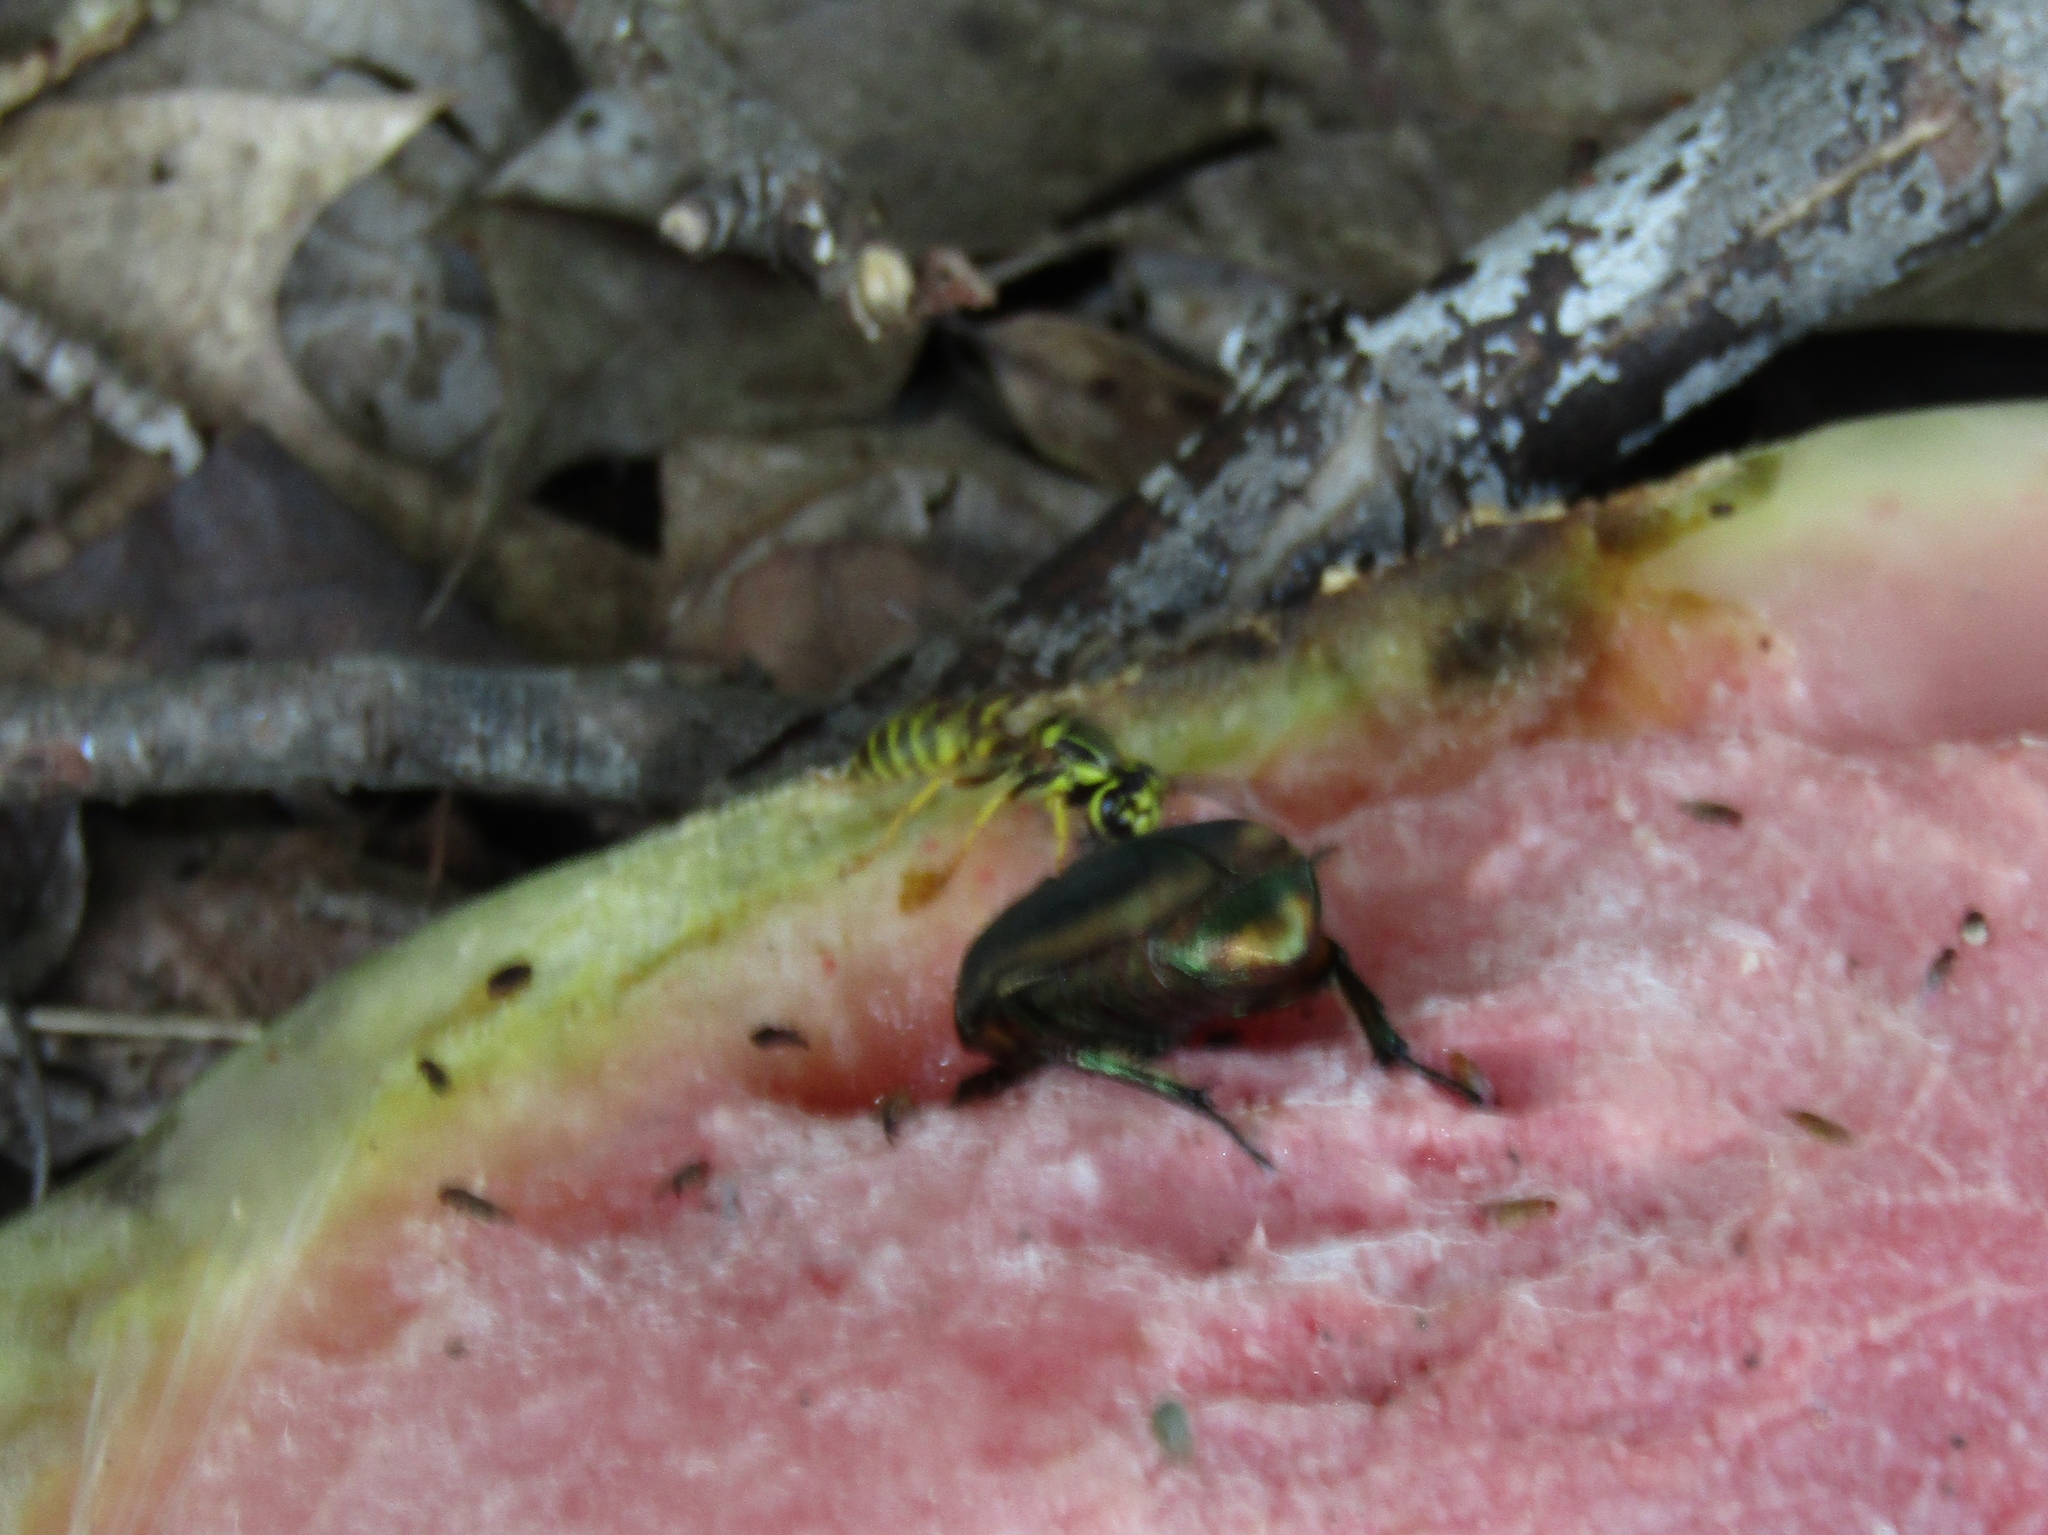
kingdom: Animalia
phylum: Arthropoda
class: Insecta
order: Hymenoptera
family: Vespidae
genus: Vespula
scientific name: Vespula squamosa
